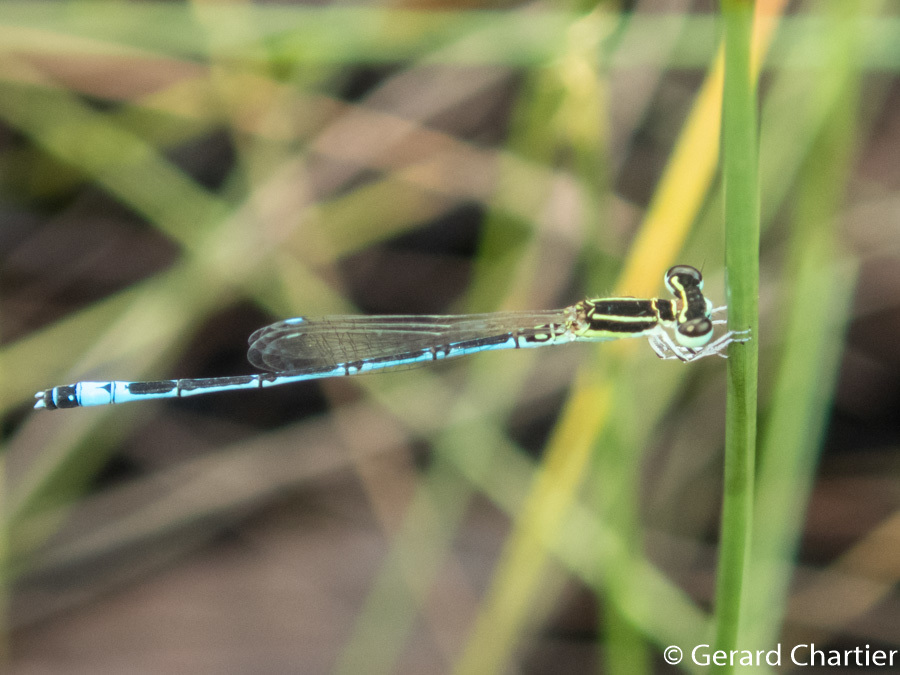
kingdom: Animalia
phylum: Arthropoda
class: Insecta
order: Odonata
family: Coenagrionidae
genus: Agriocnemis
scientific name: Agriocnemis nana
